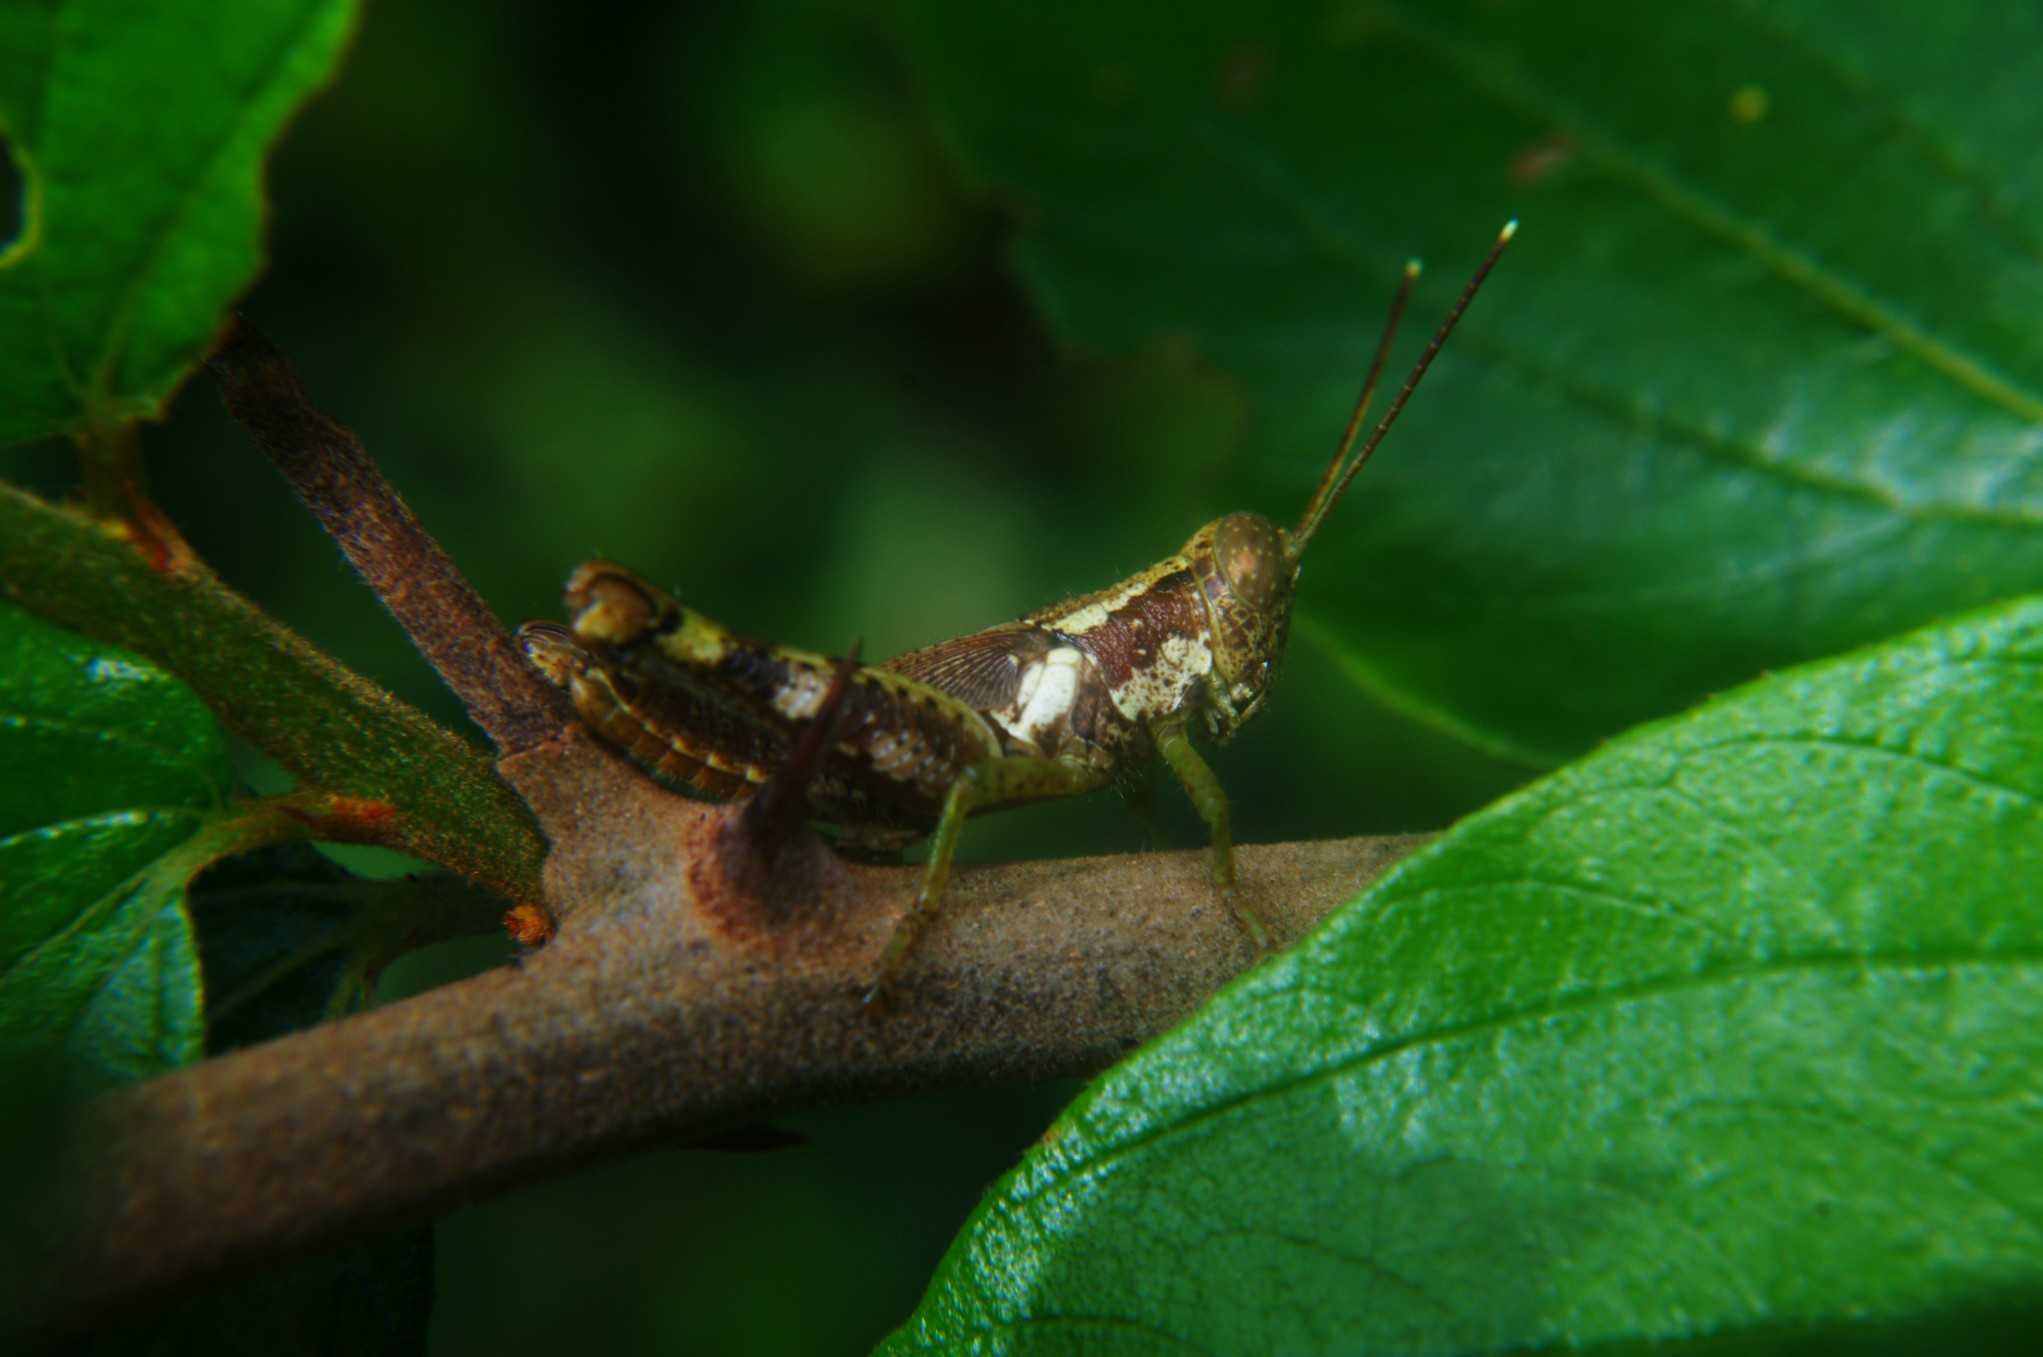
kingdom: Animalia
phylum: Arthropoda
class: Insecta
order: Orthoptera
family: Acrididae
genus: Pirithoicus
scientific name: Pirithoicus ophthalmicus
